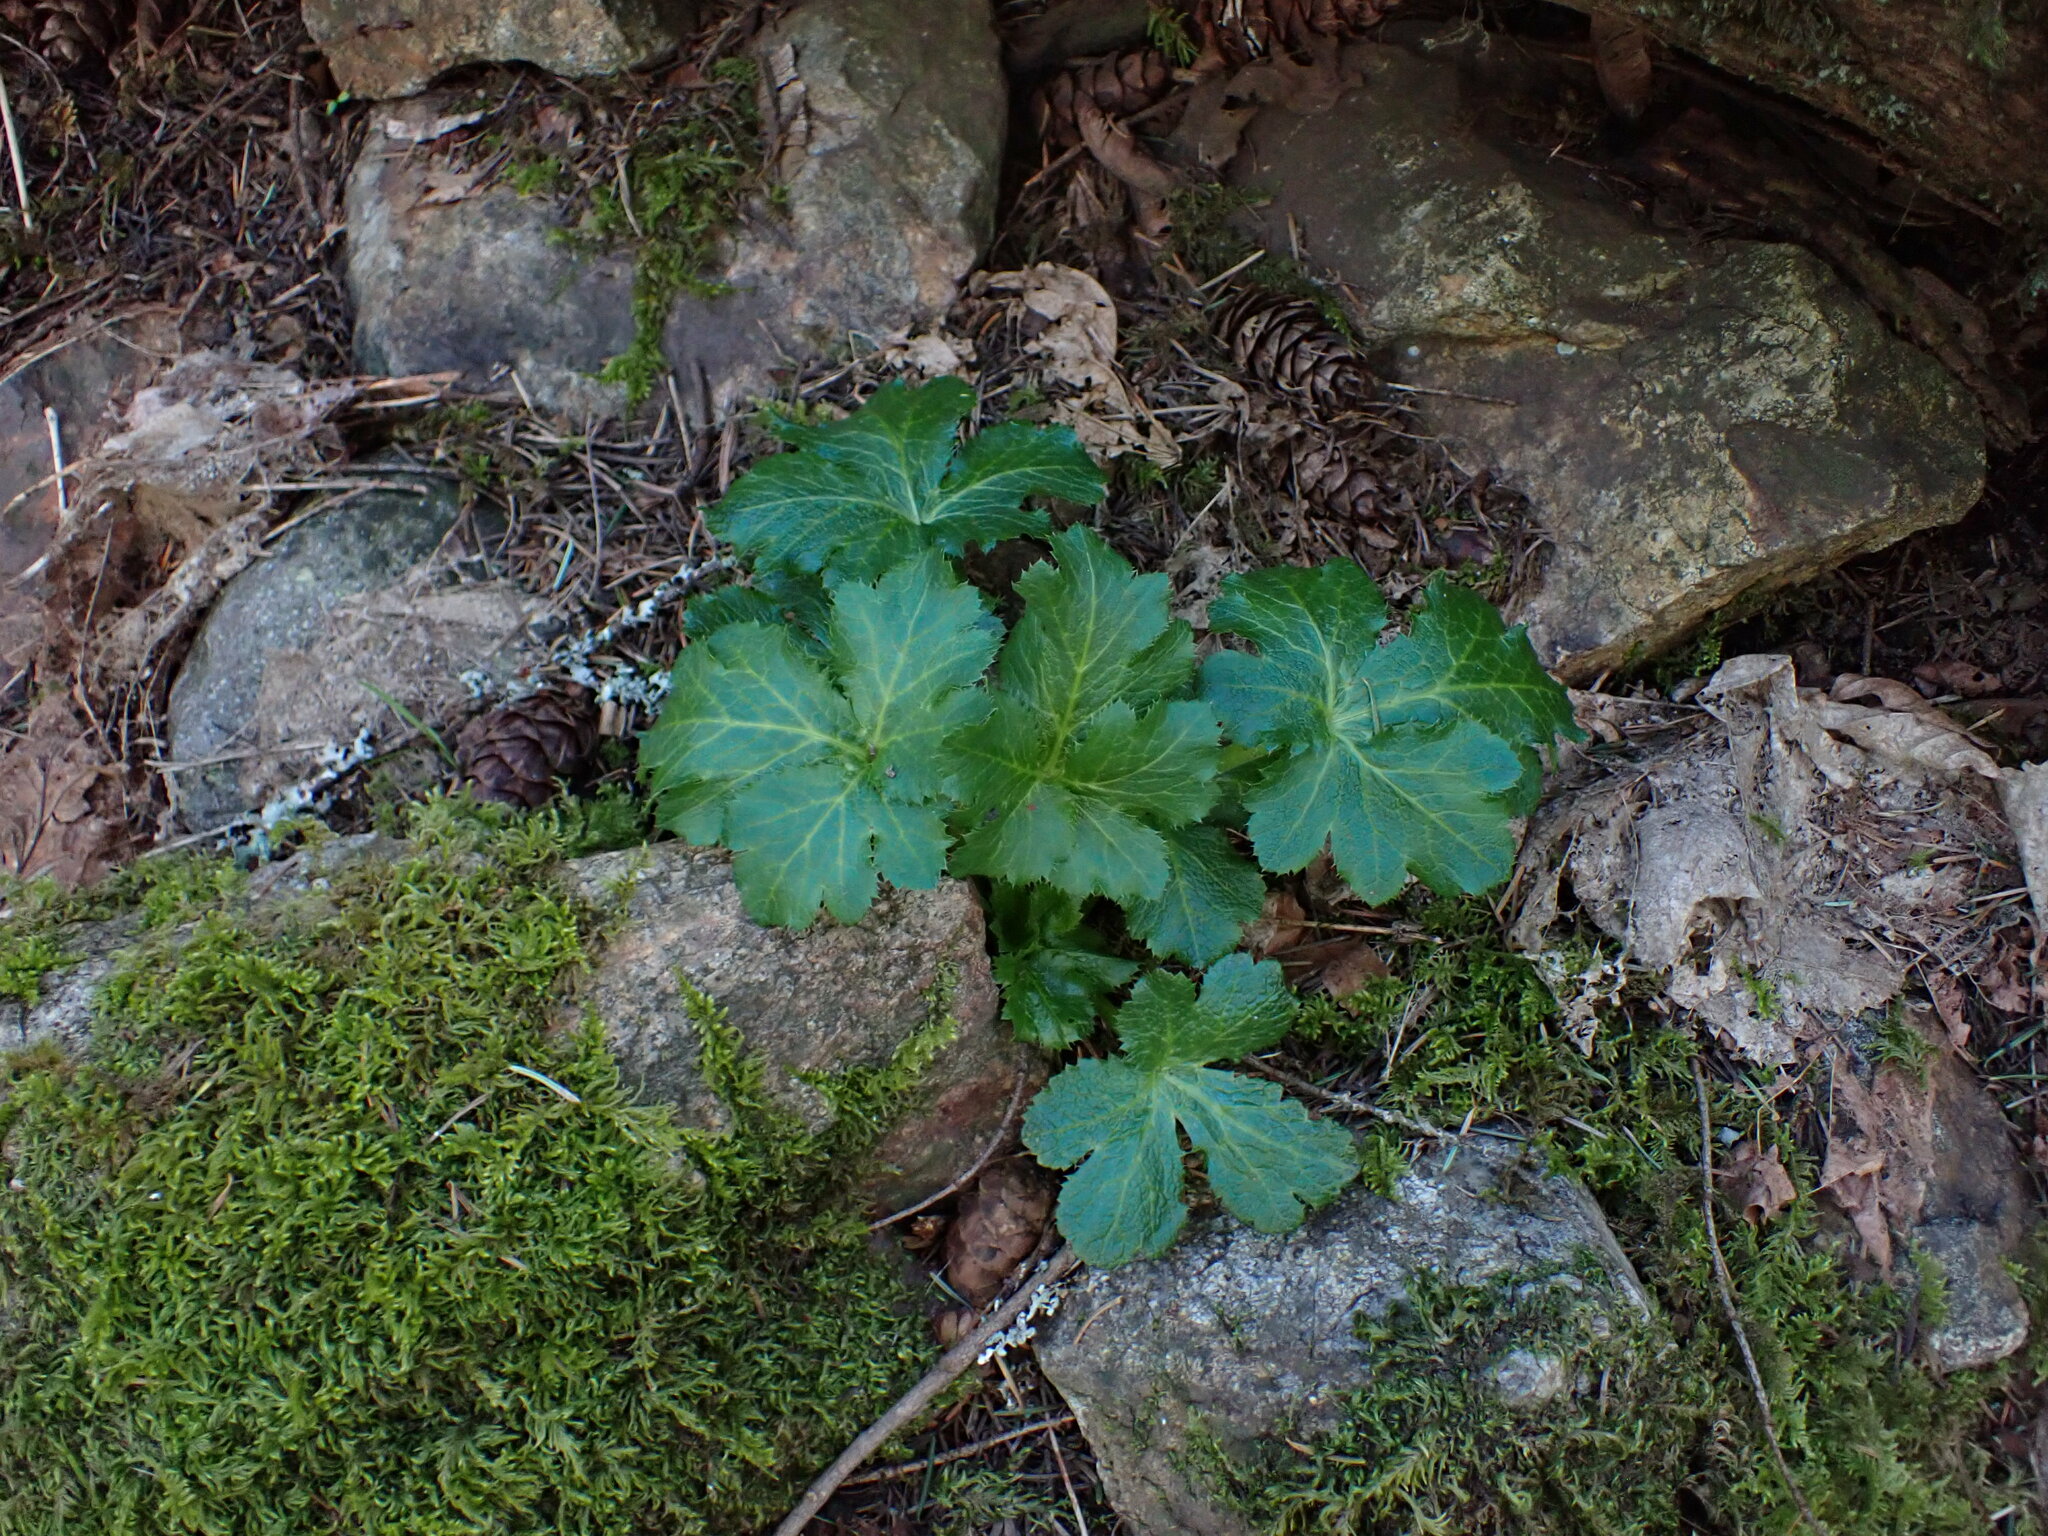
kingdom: Plantae
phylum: Tracheophyta
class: Magnoliopsida
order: Apiales
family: Apiaceae
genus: Sanicula
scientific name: Sanicula crassicaulis
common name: Western snakeroot
